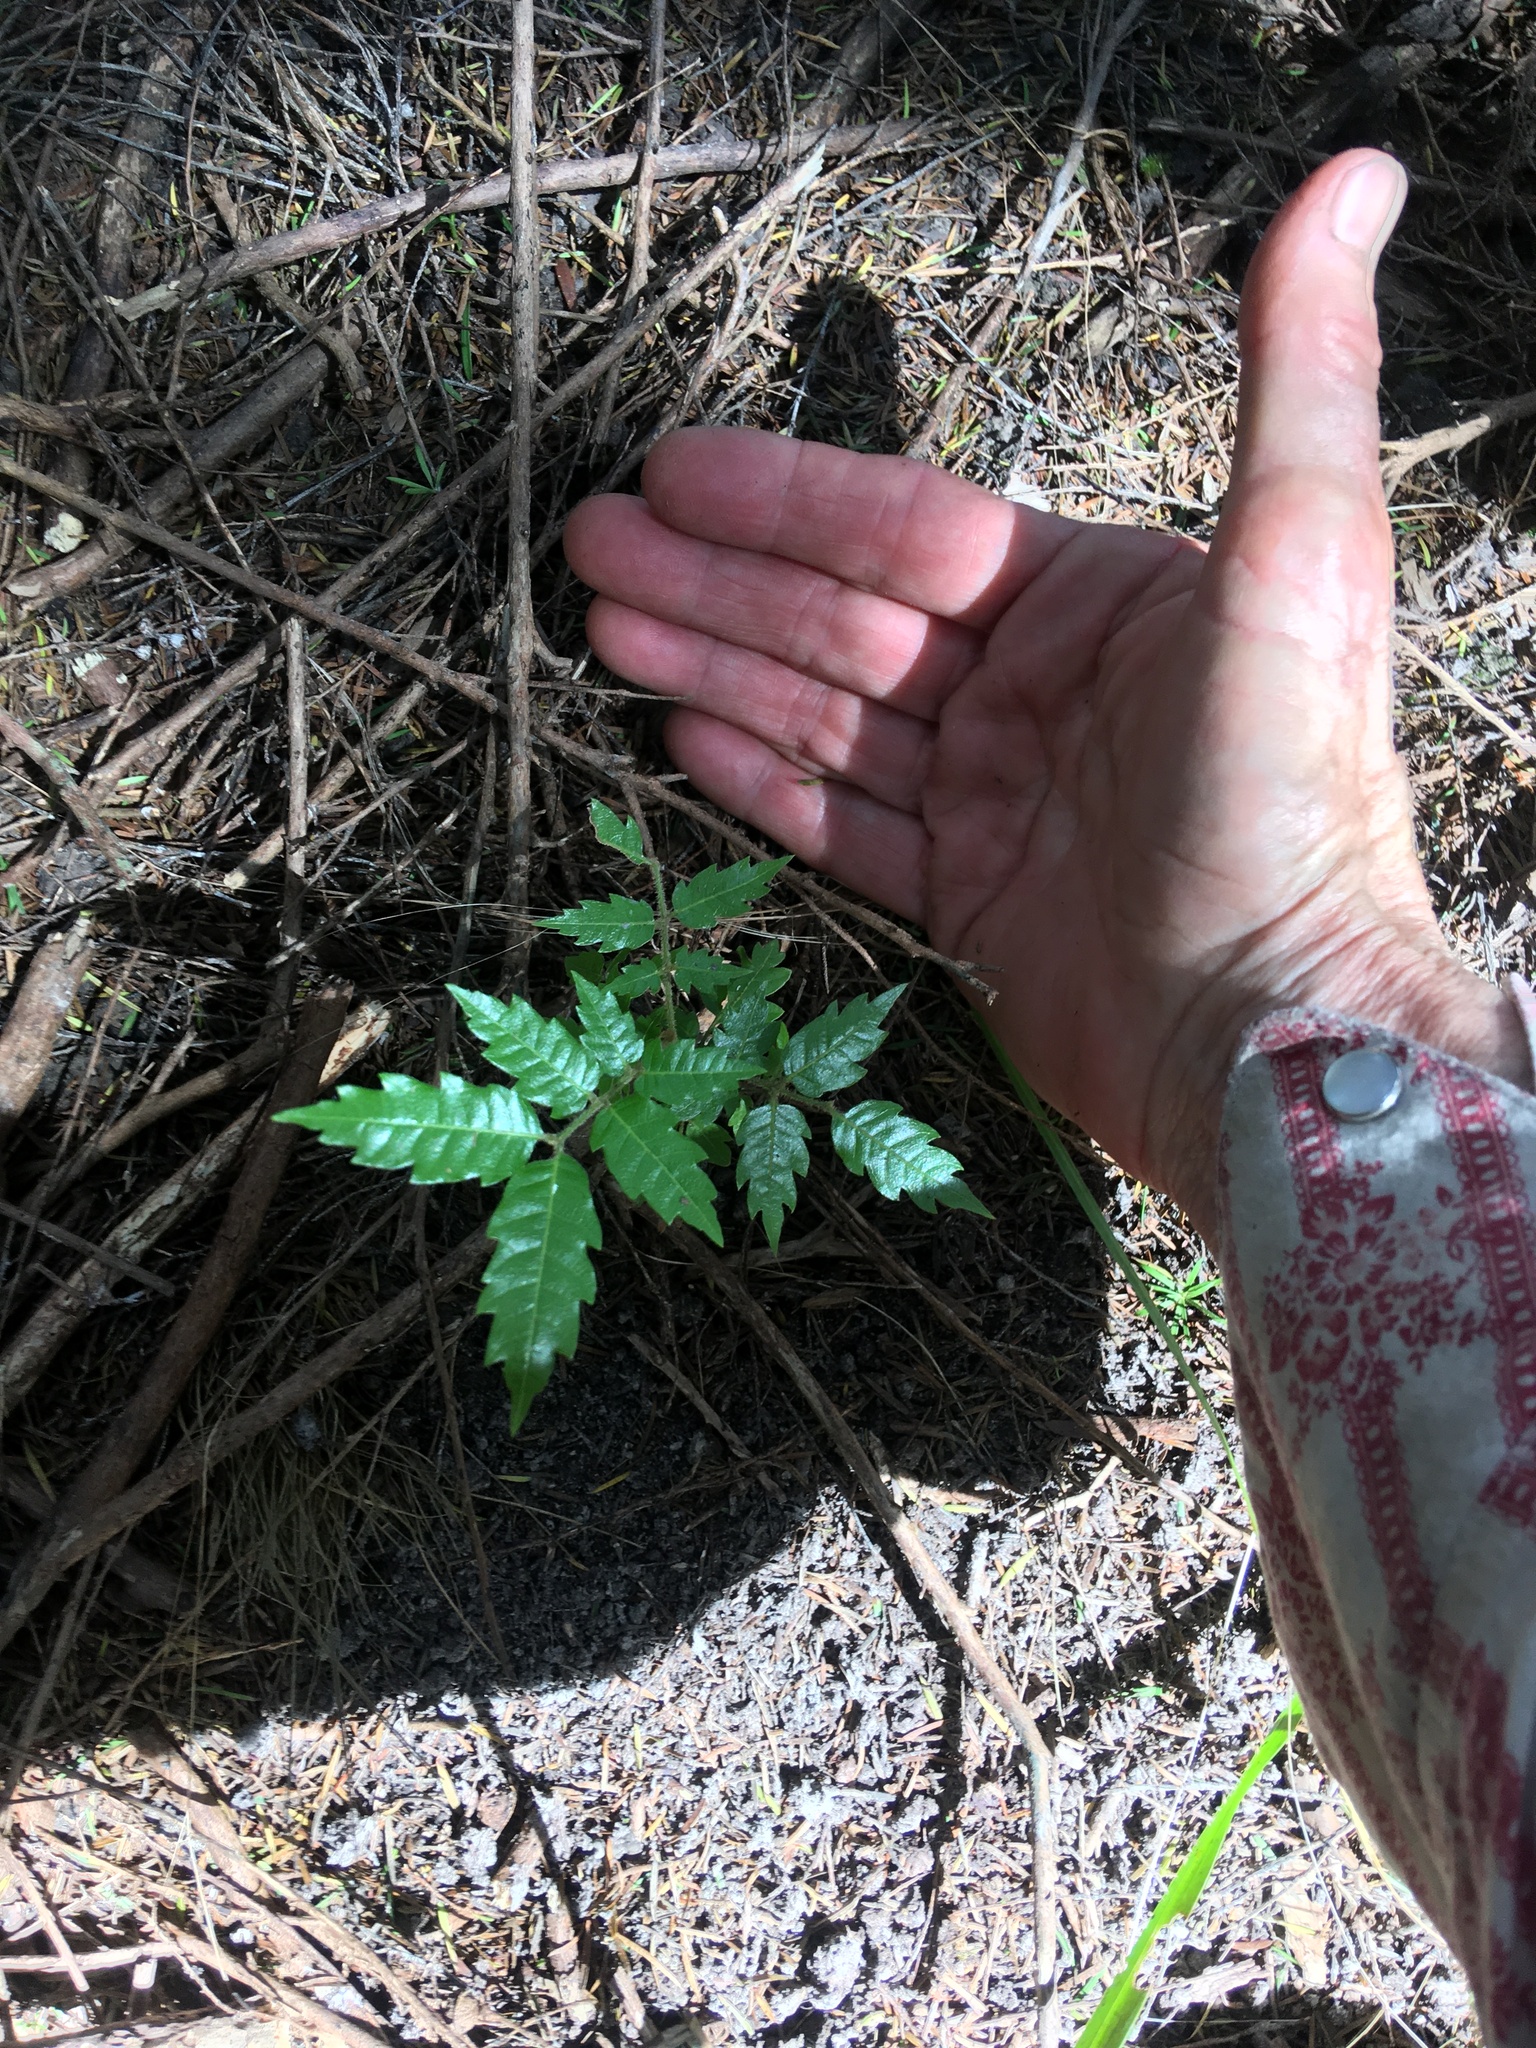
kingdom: Plantae
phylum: Tracheophyta
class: Magnoliopsida
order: Sapindales
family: Sapindaceae
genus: Alectryon
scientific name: Alectryon excelsus
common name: Three kings titoki
